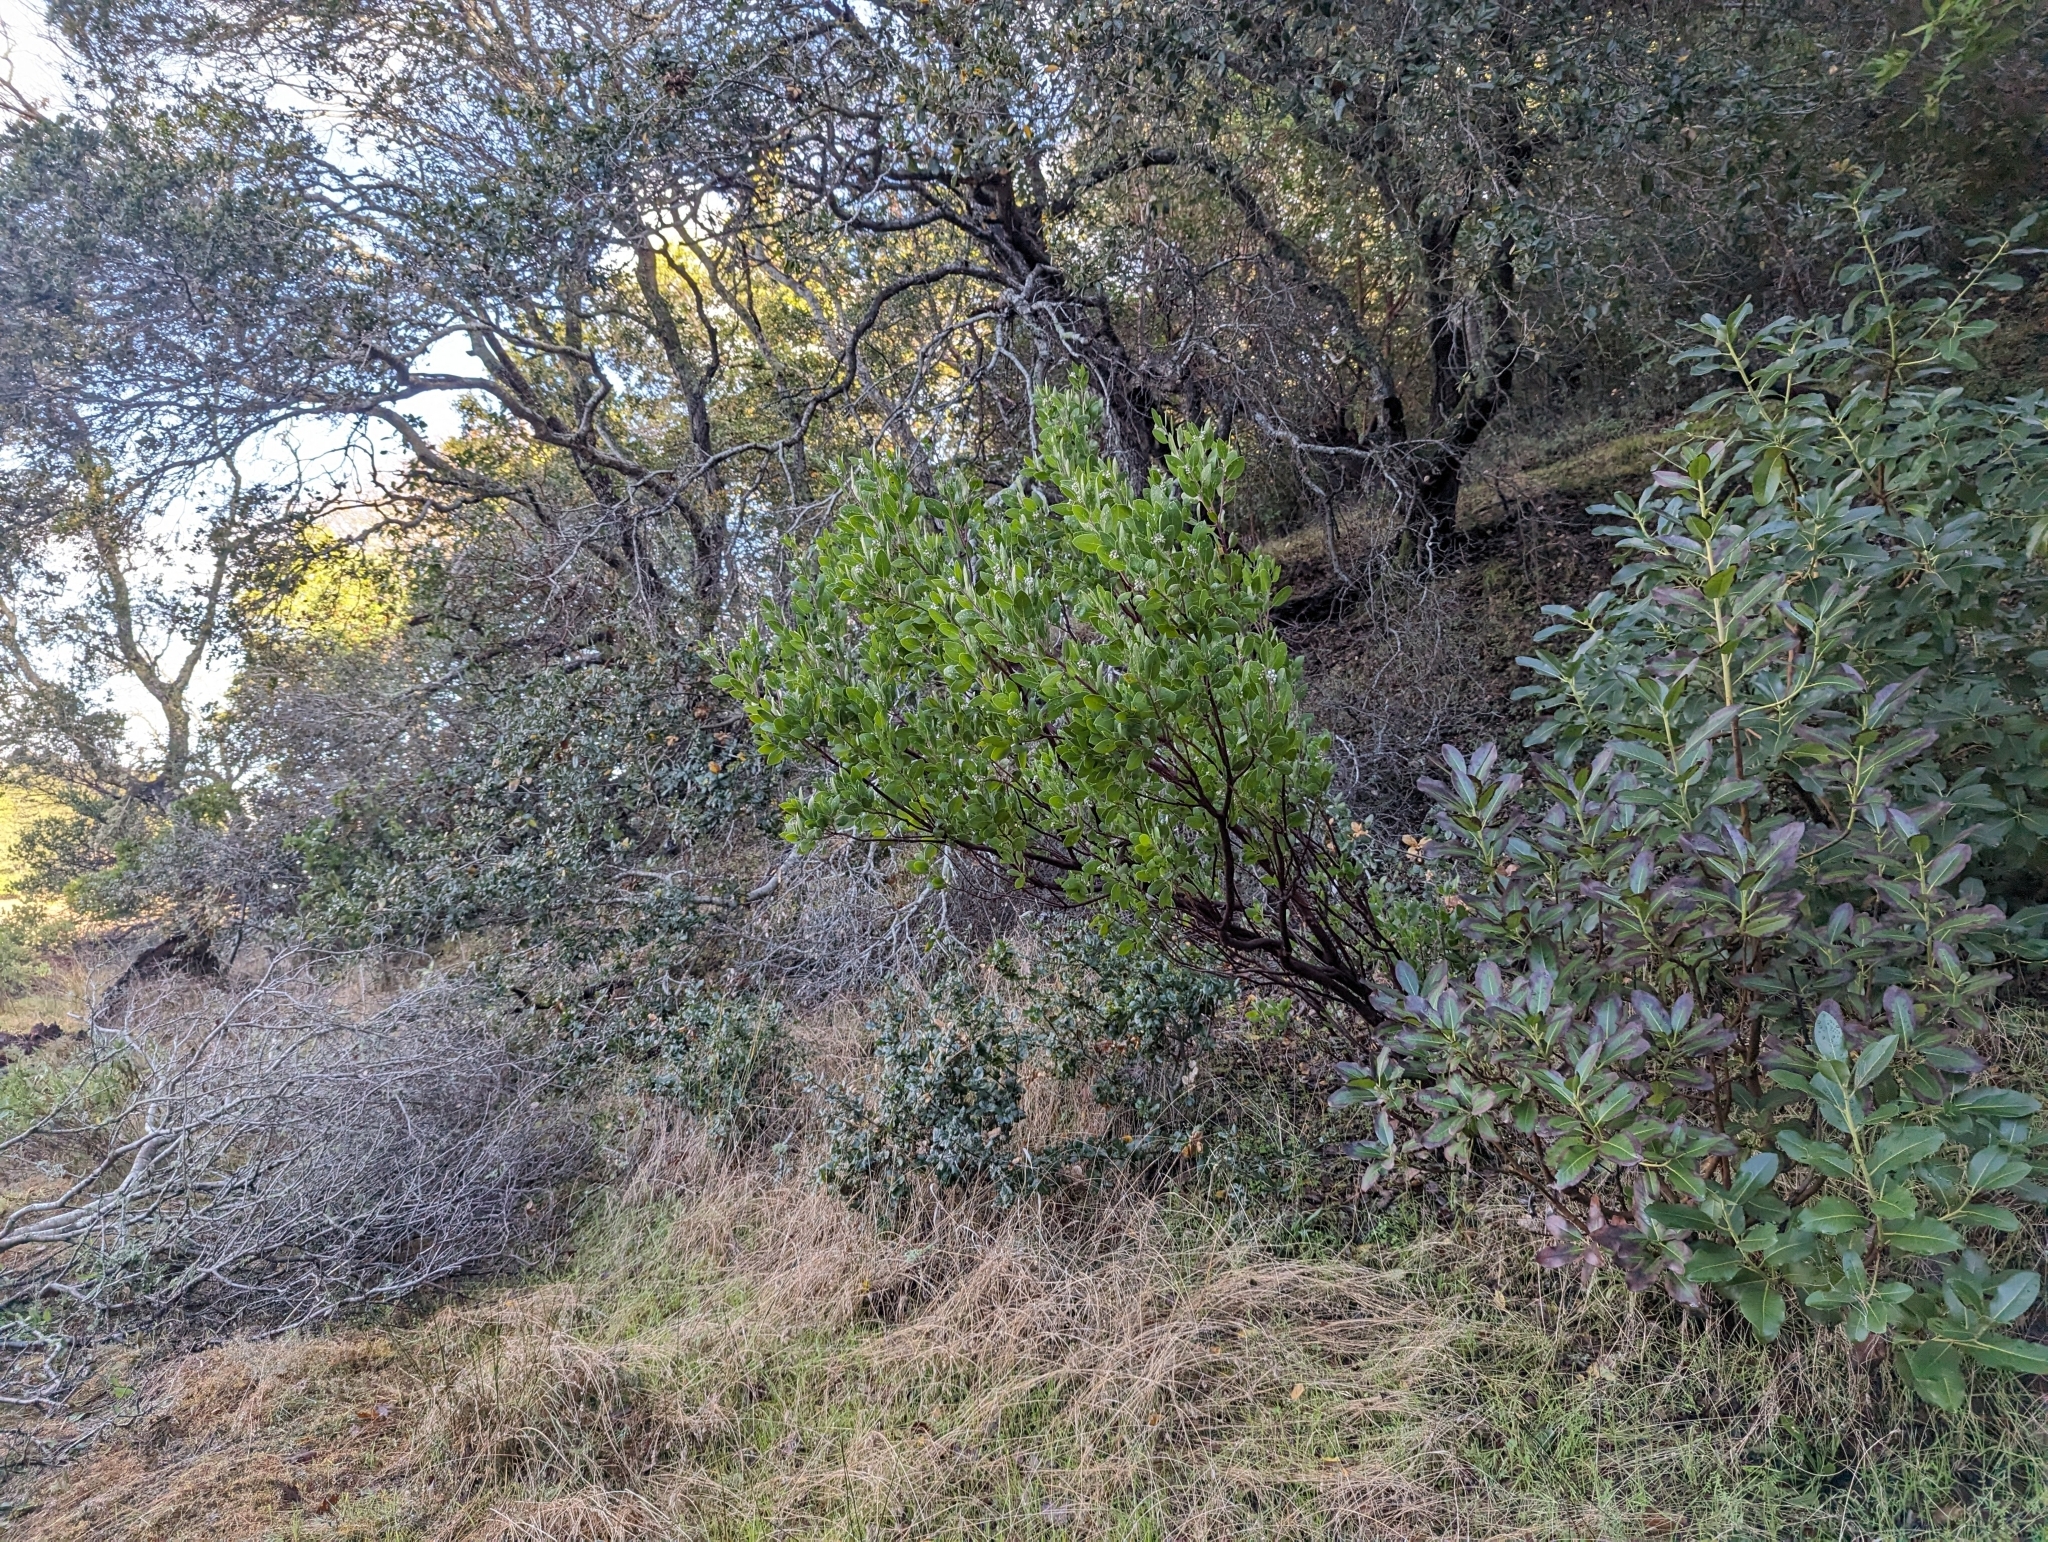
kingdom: Plantae
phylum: Tracheophyta
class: Magnoliopsida
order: Ericales
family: Ericaceae
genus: Arctostaphylos
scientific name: Arctostaphylos manzanita
